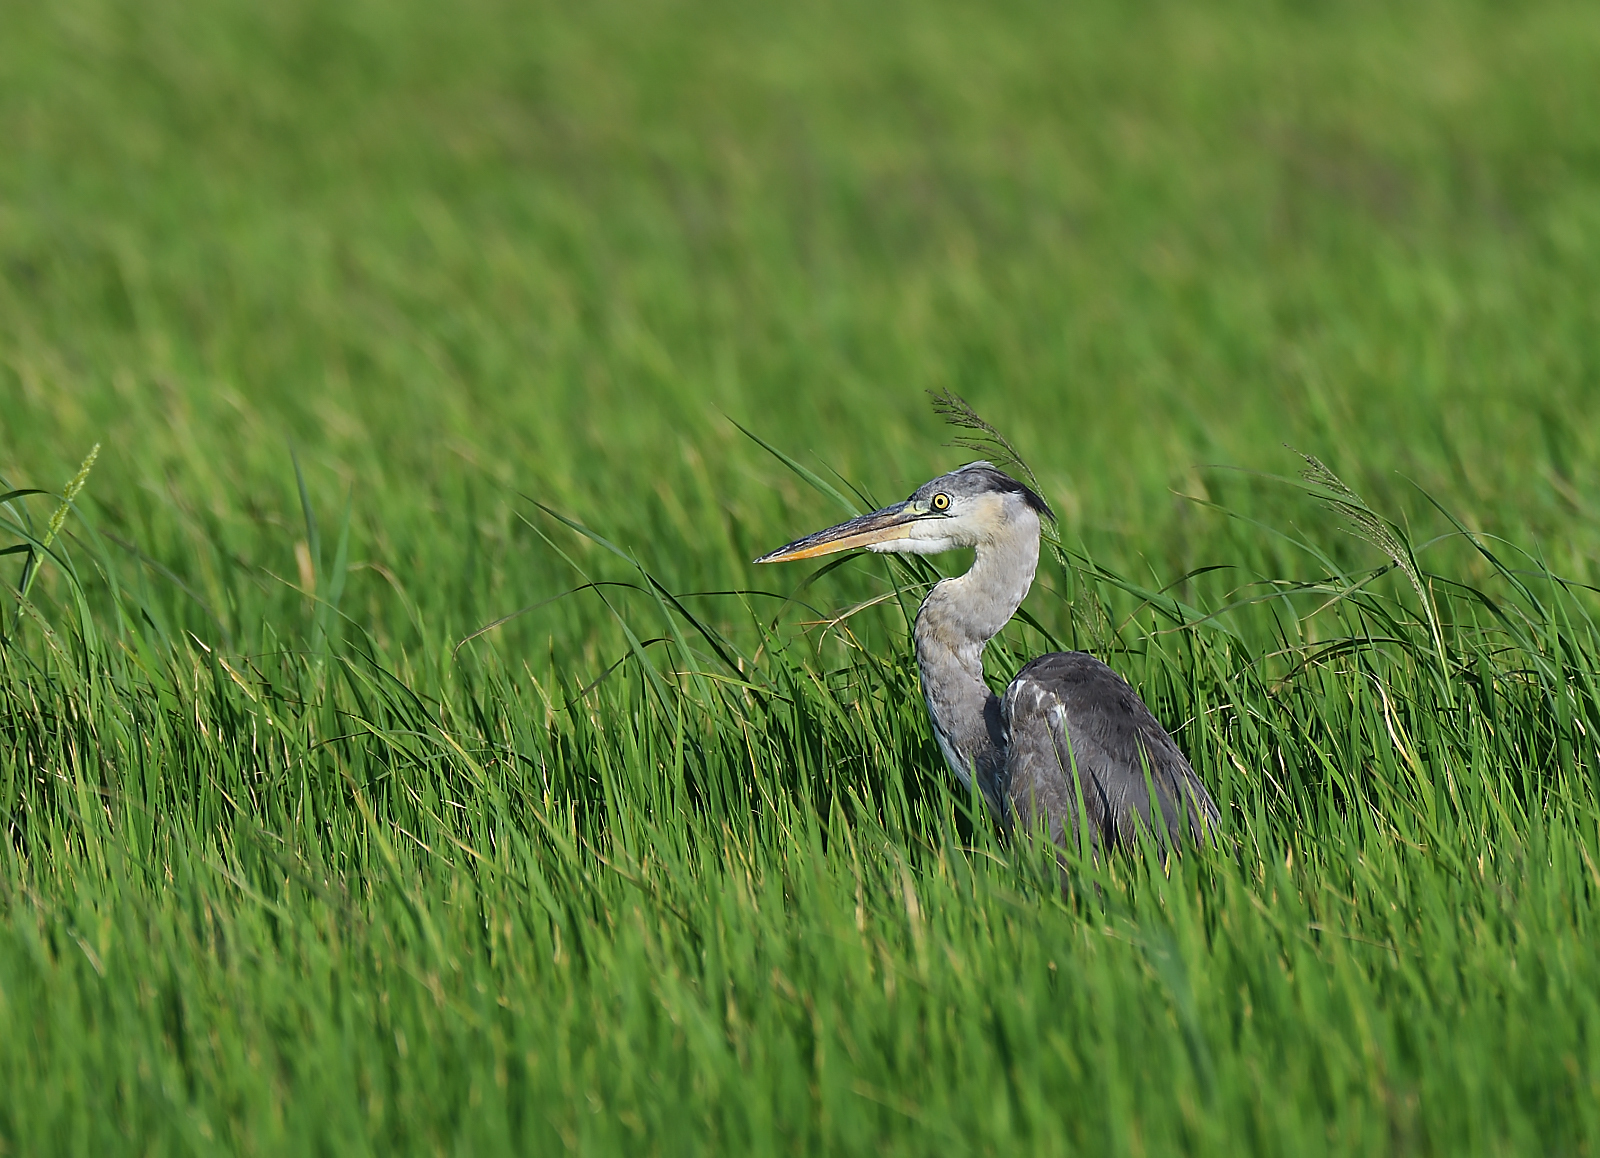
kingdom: Animalia
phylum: Chordata
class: Aves
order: Pelecaniformes
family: Ardeidae
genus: Ardea
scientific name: Ardea cinerea
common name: Grey heron
